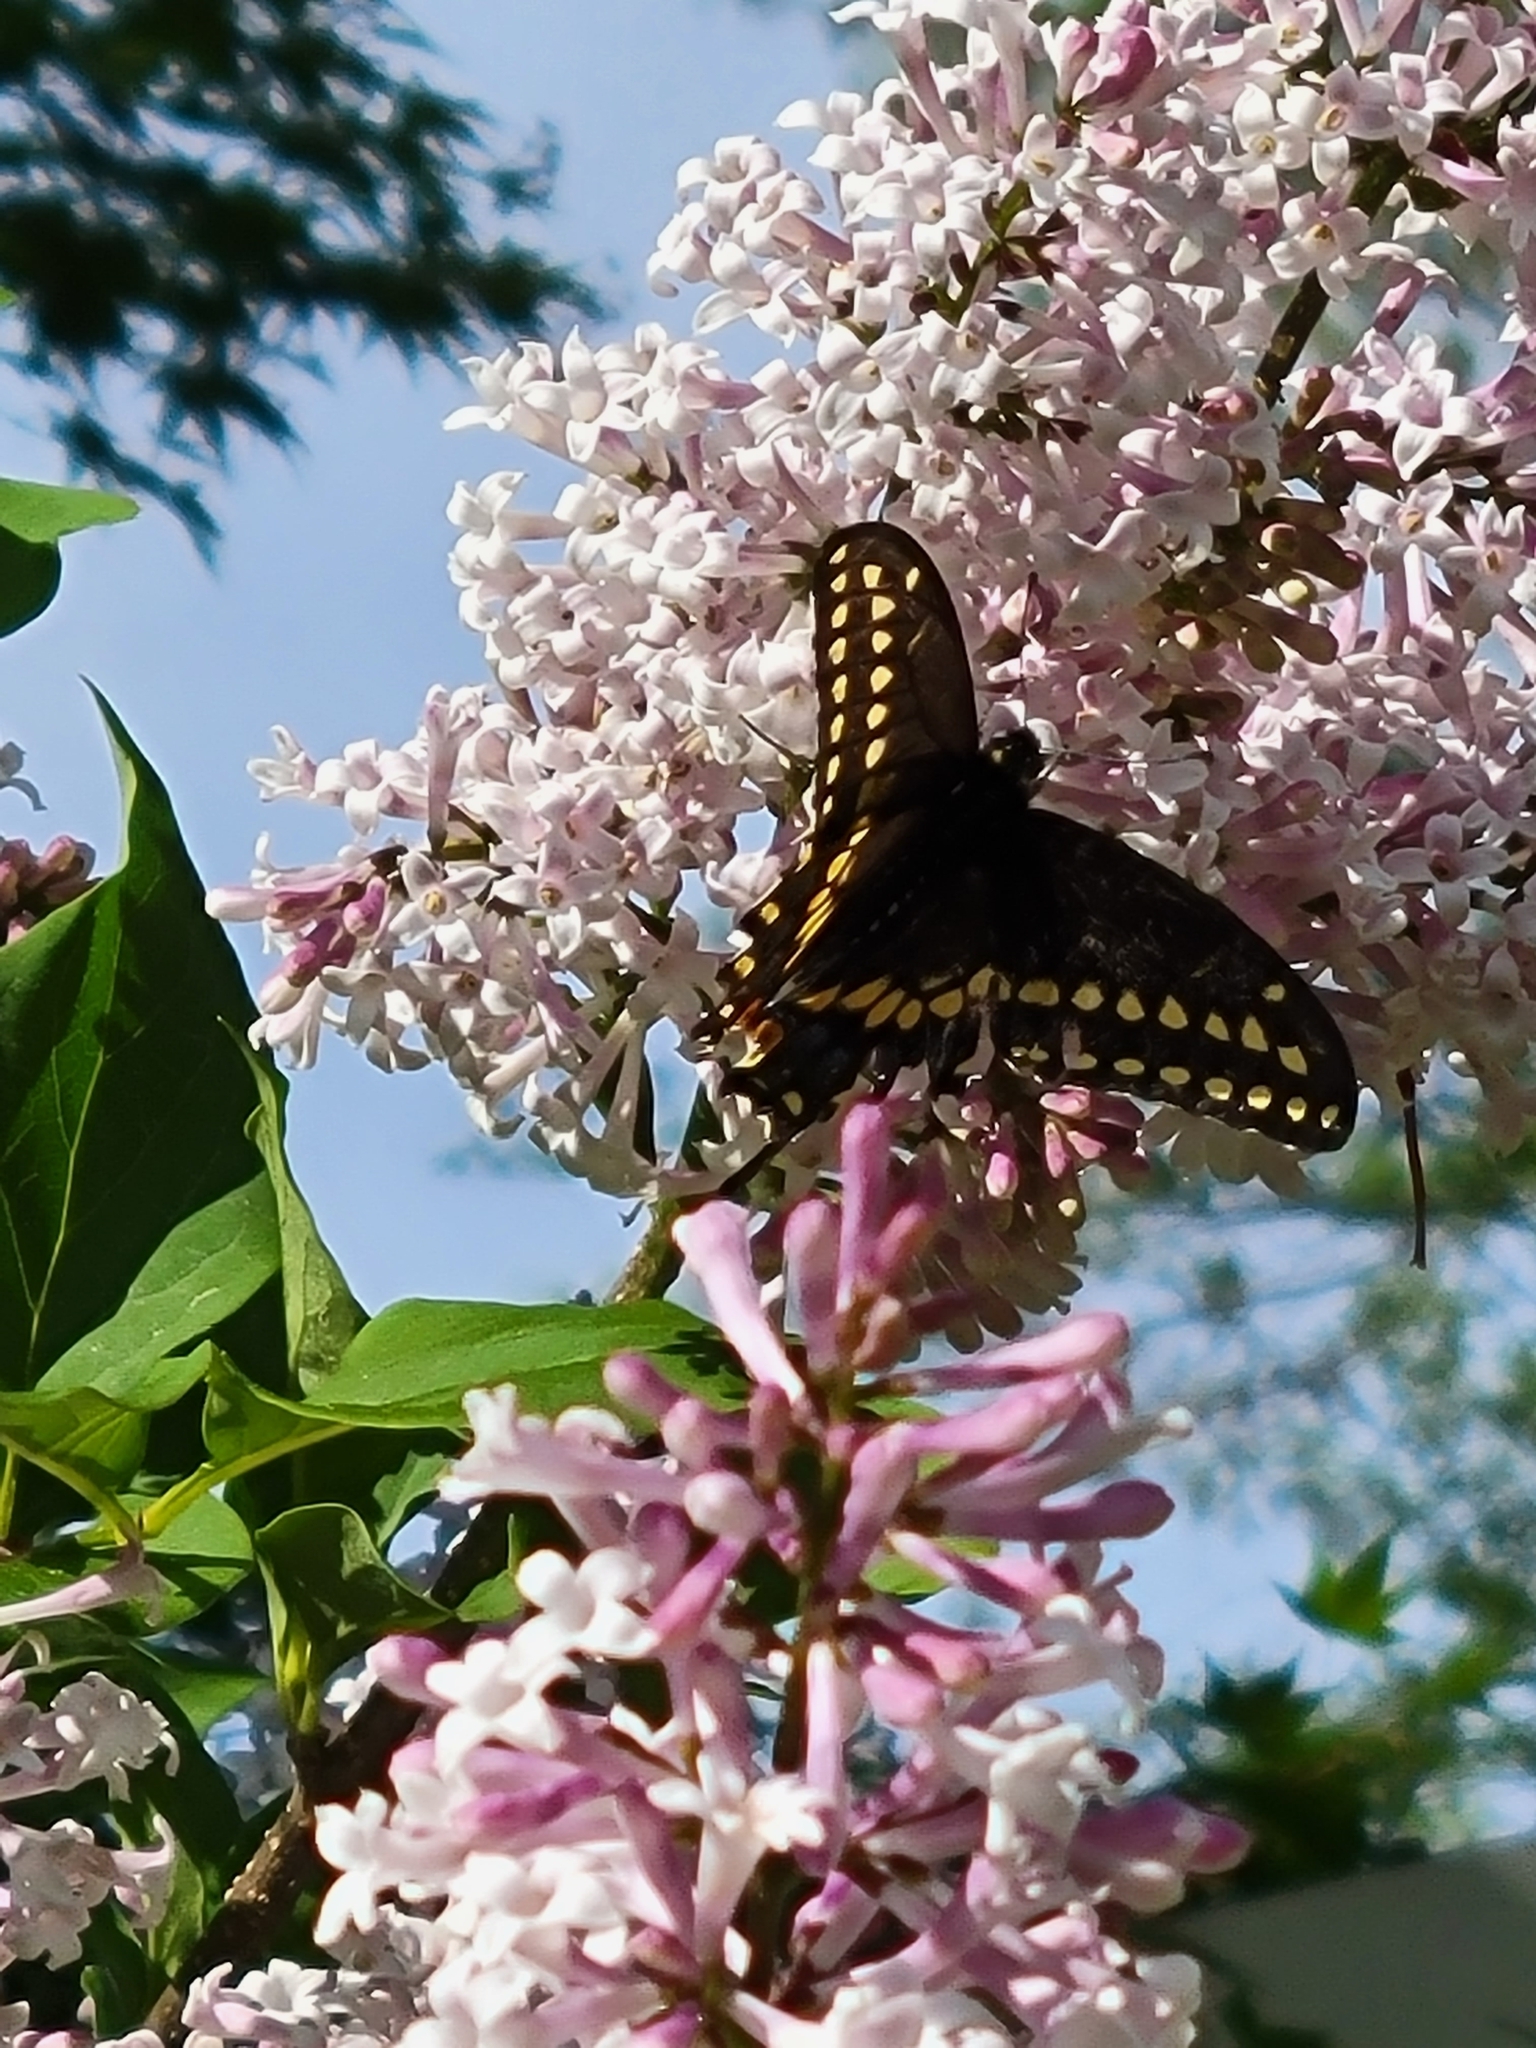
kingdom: Animalia
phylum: Arthropoda
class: Insecta
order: Lepidoptera
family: Papilionidae
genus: Papilio
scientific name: Papilio polyxenes
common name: Black swallowtail
